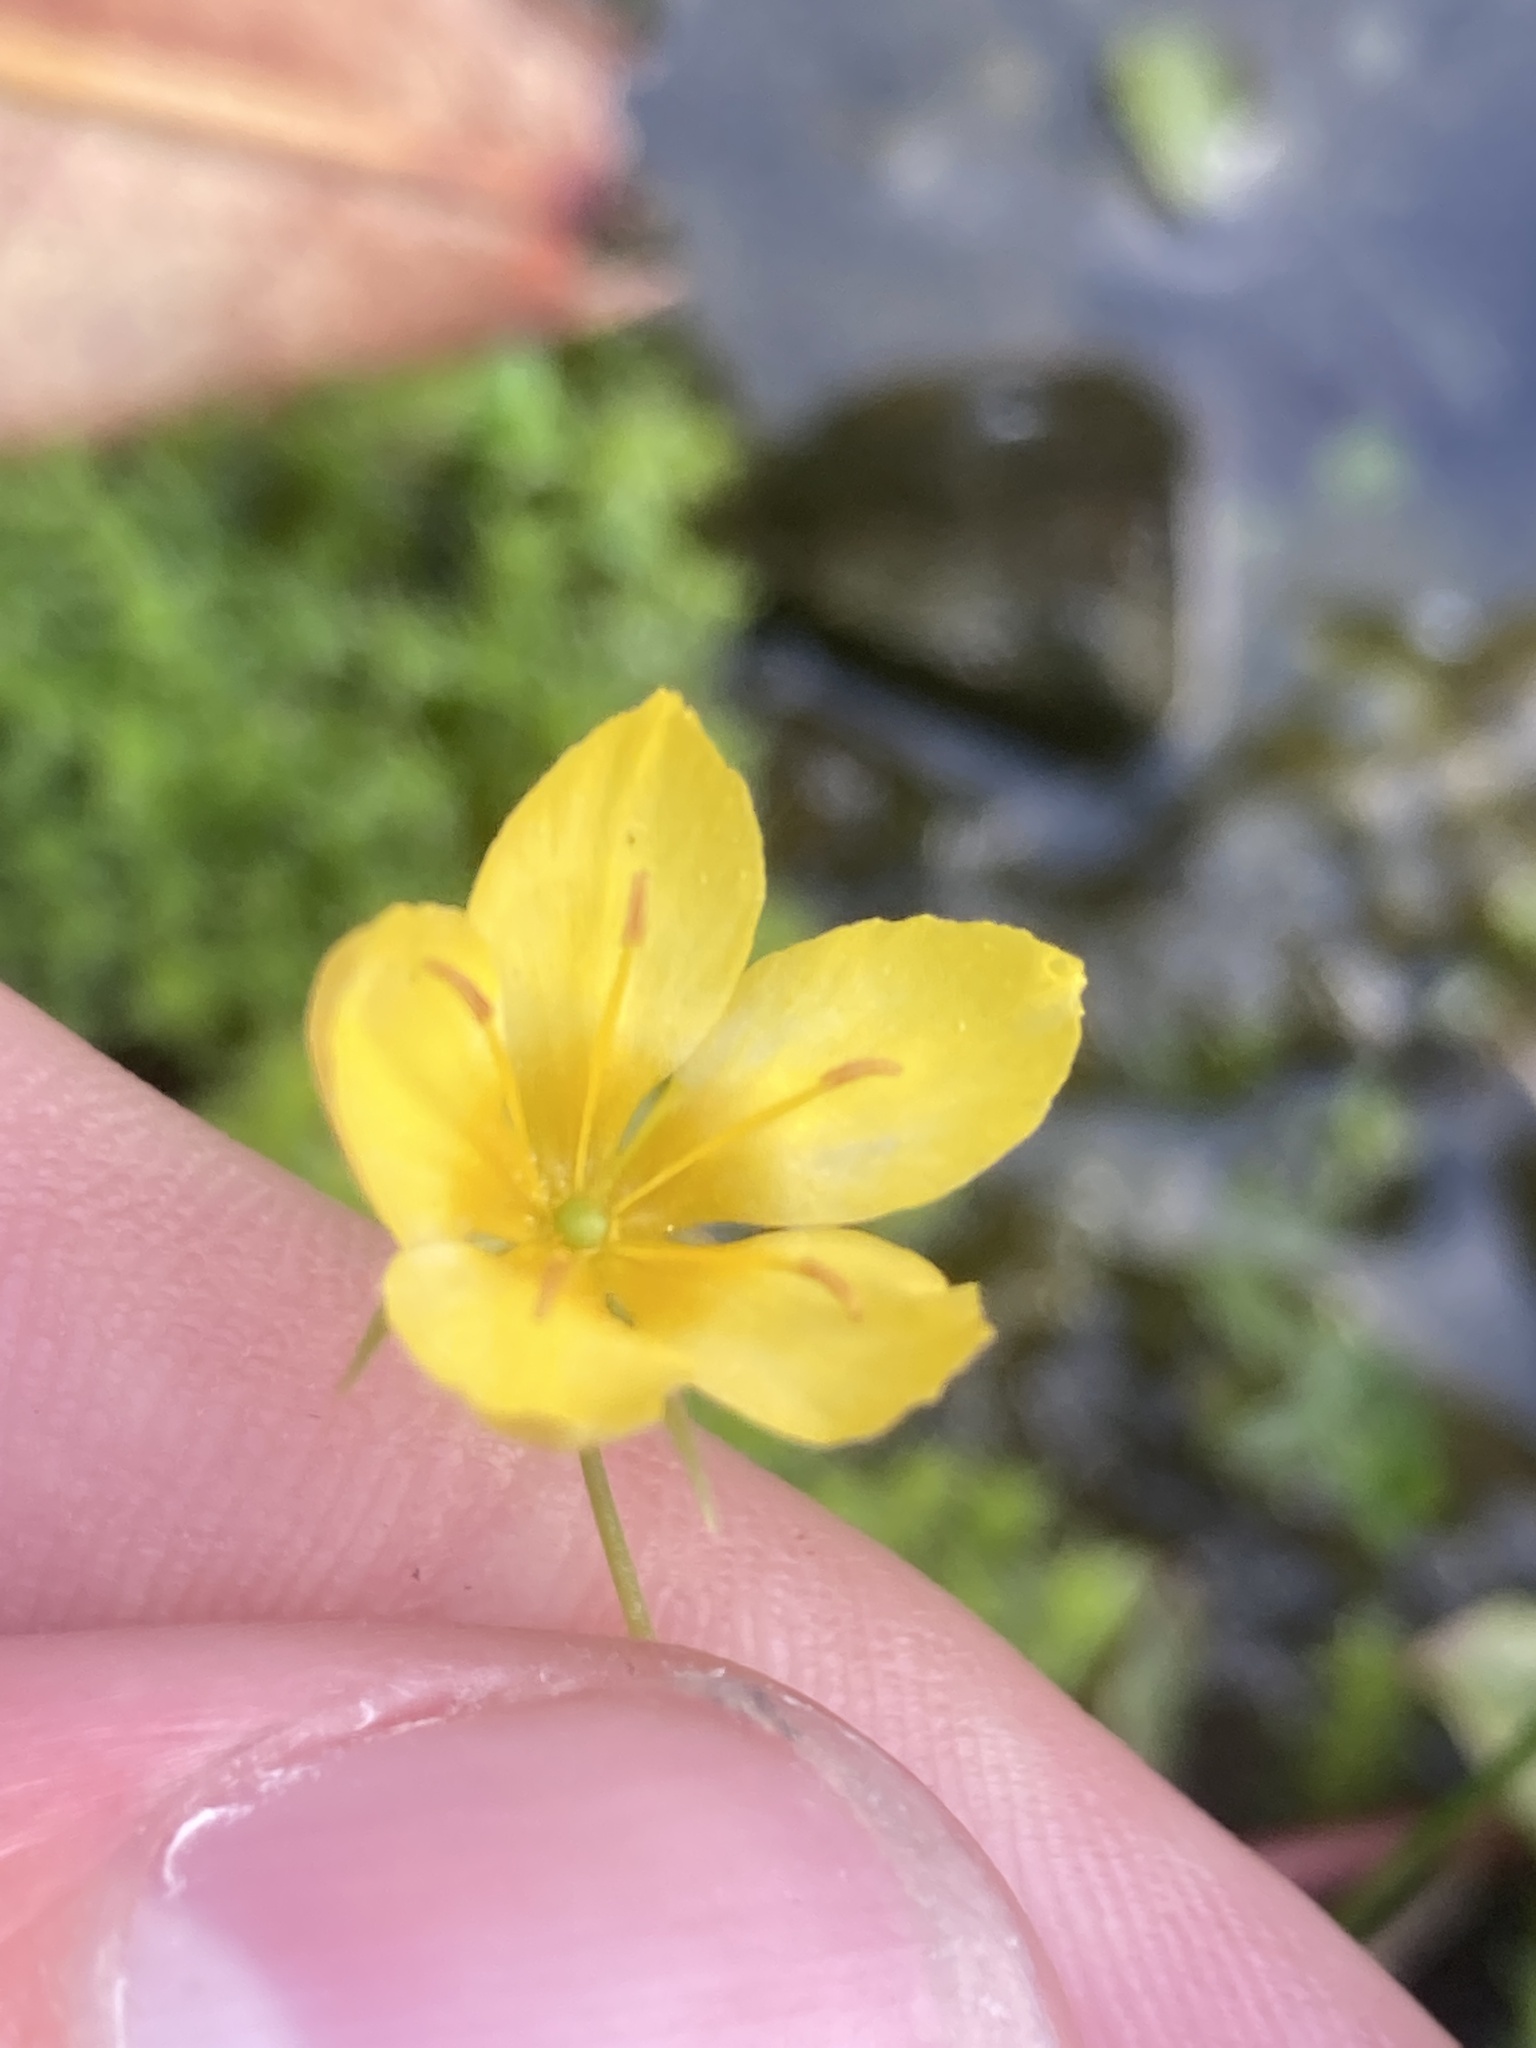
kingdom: Plantae
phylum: Tracheophyta
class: Magnoliopsida
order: Ericales
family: Primulaceae
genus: Lysimachia
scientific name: Lysimachia nemorum
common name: Yellow pimpernel
